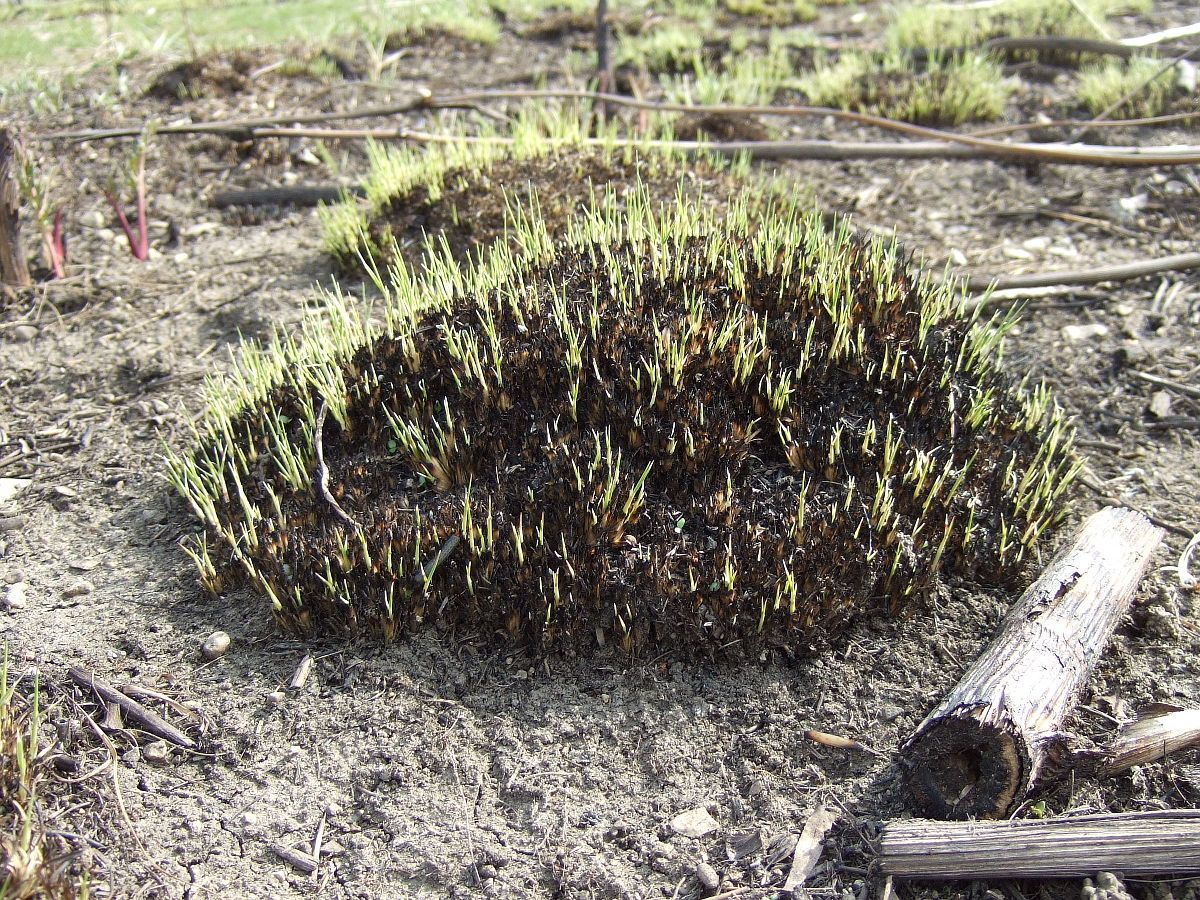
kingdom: Plantae
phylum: Tracheophyta
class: Liliopsida
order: Poales
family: Poaceae
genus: Sporobolus
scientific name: Sporobolus heterolepis
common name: Prairie dropseed
